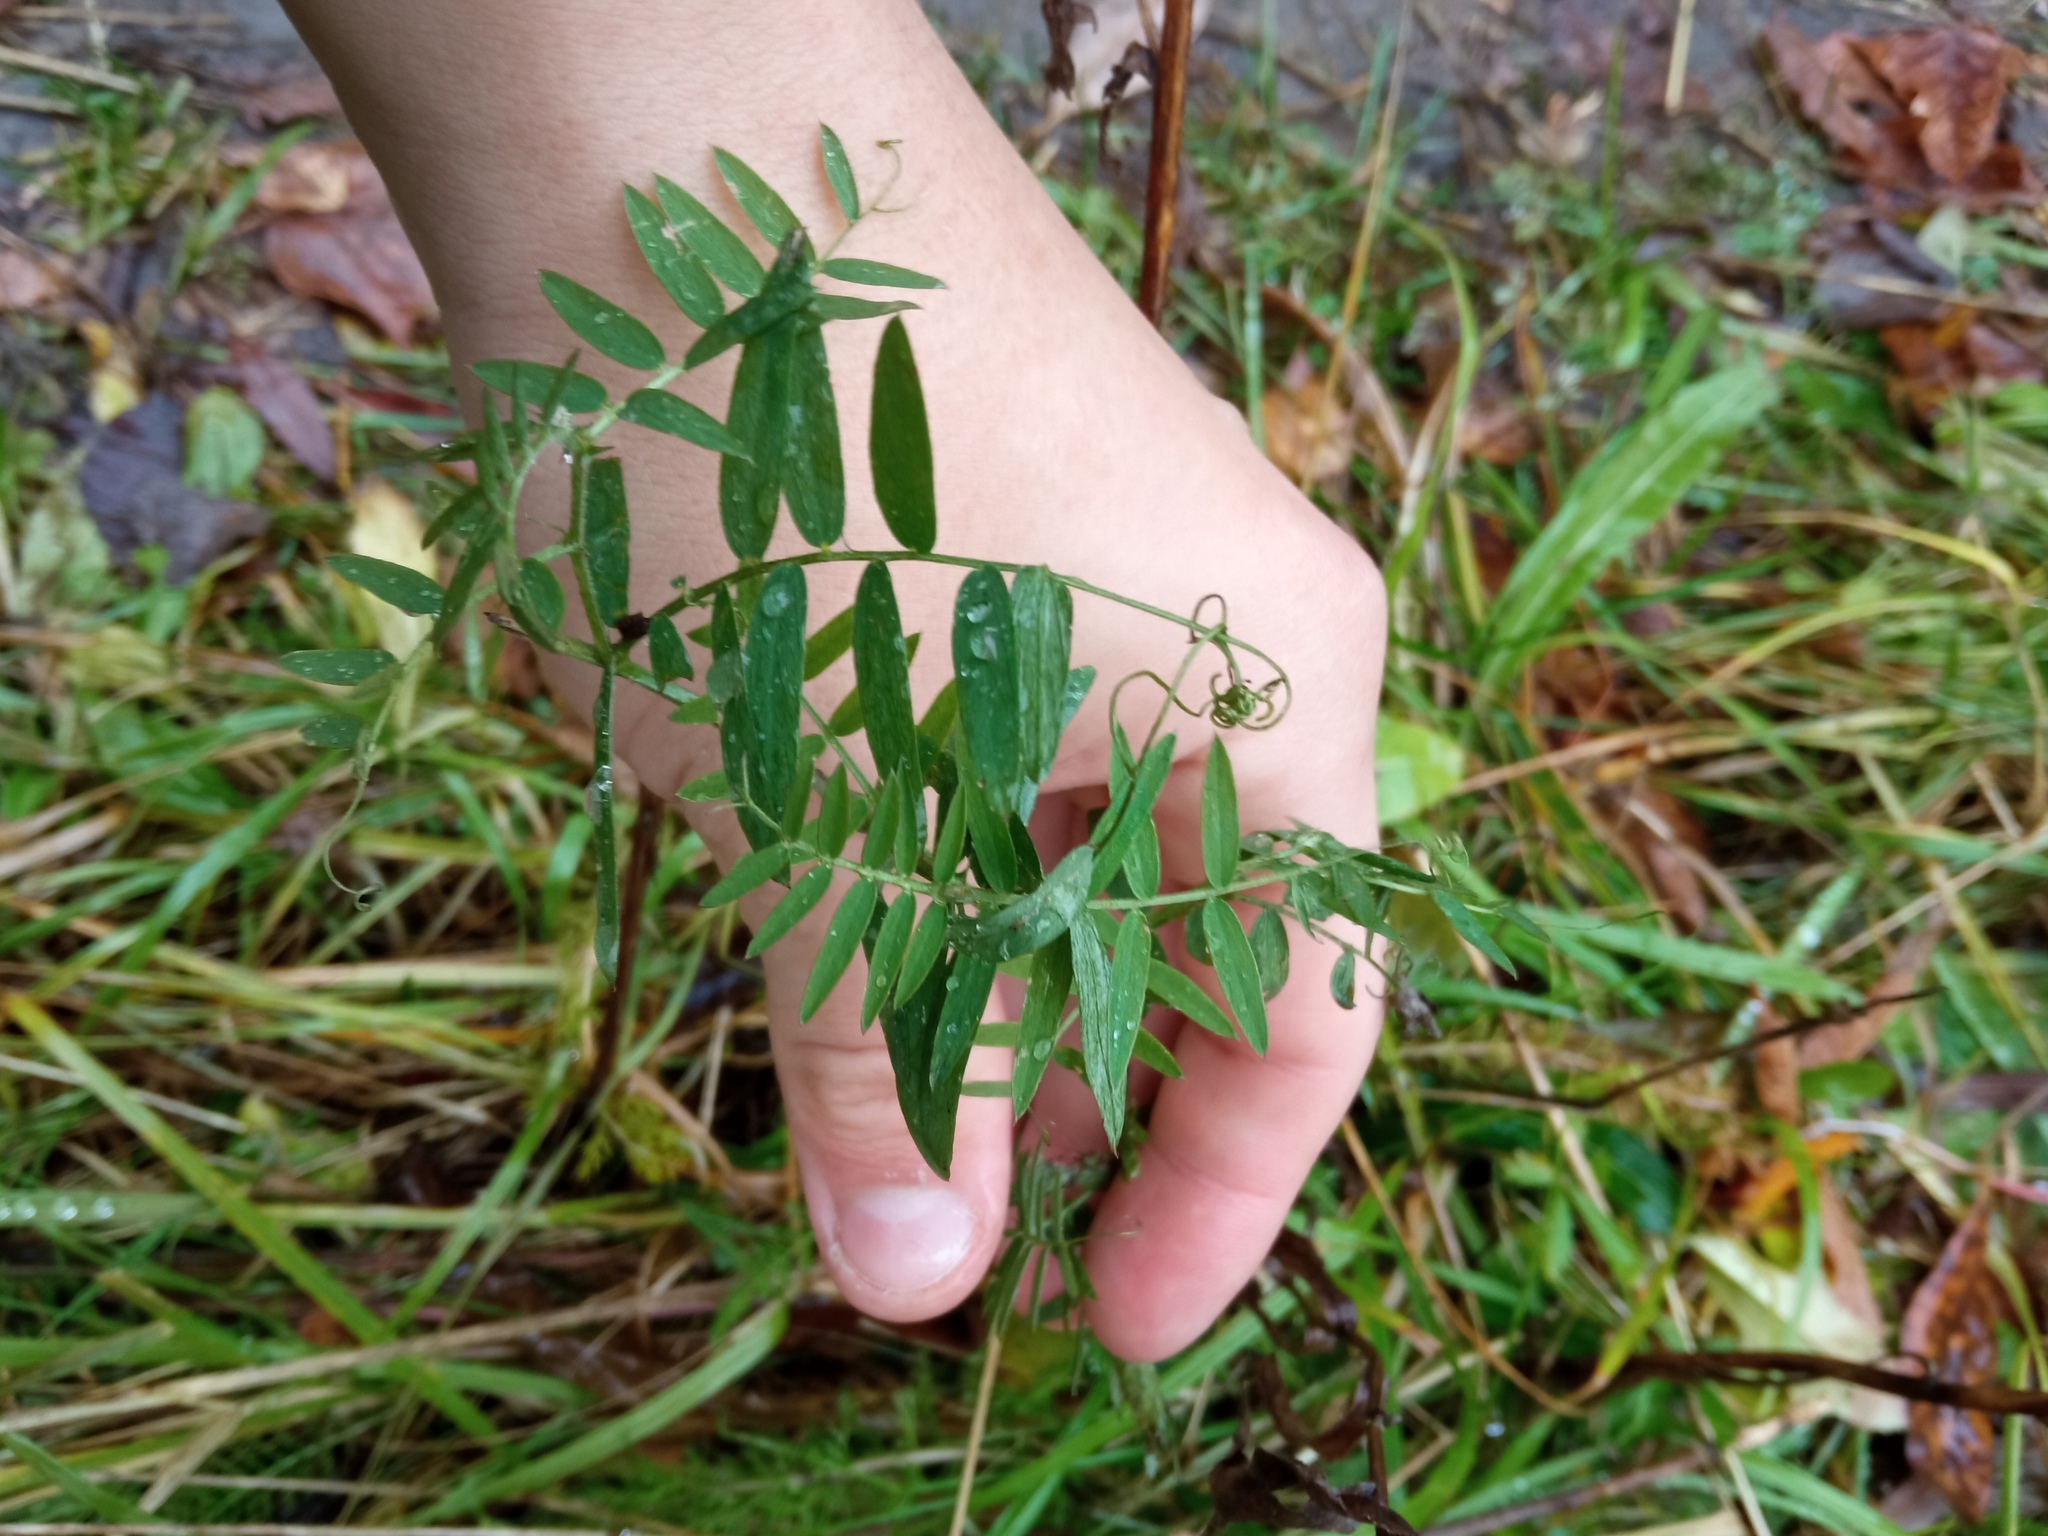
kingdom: Plantae
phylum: Tracheophyta
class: Magnoliopsida
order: Fabales
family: Fabaceae
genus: Vicia
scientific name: Vicia cracca
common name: Bird vetch
